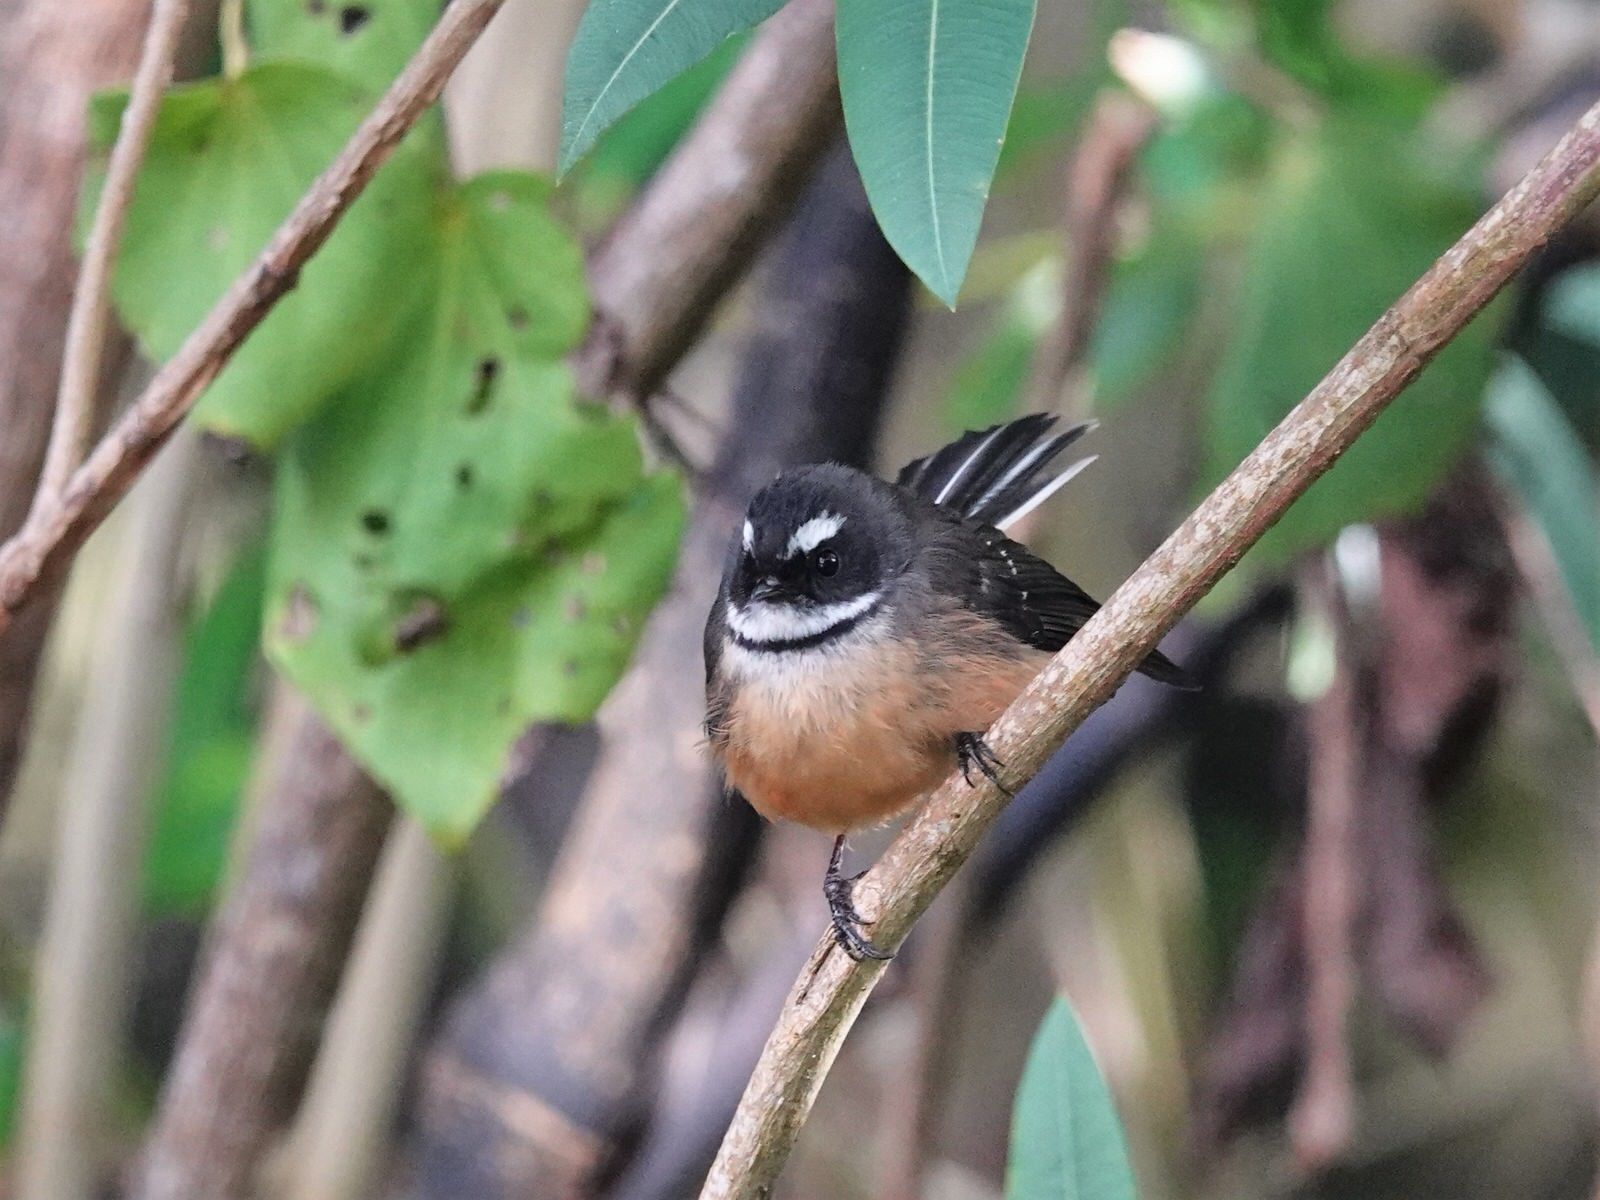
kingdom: Animalia
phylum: Chordata
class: Aves
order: Passeriformes
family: Rhipiduridae
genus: Rhipidura
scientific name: Rhipidura fuliginosa
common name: New zealand fantail
